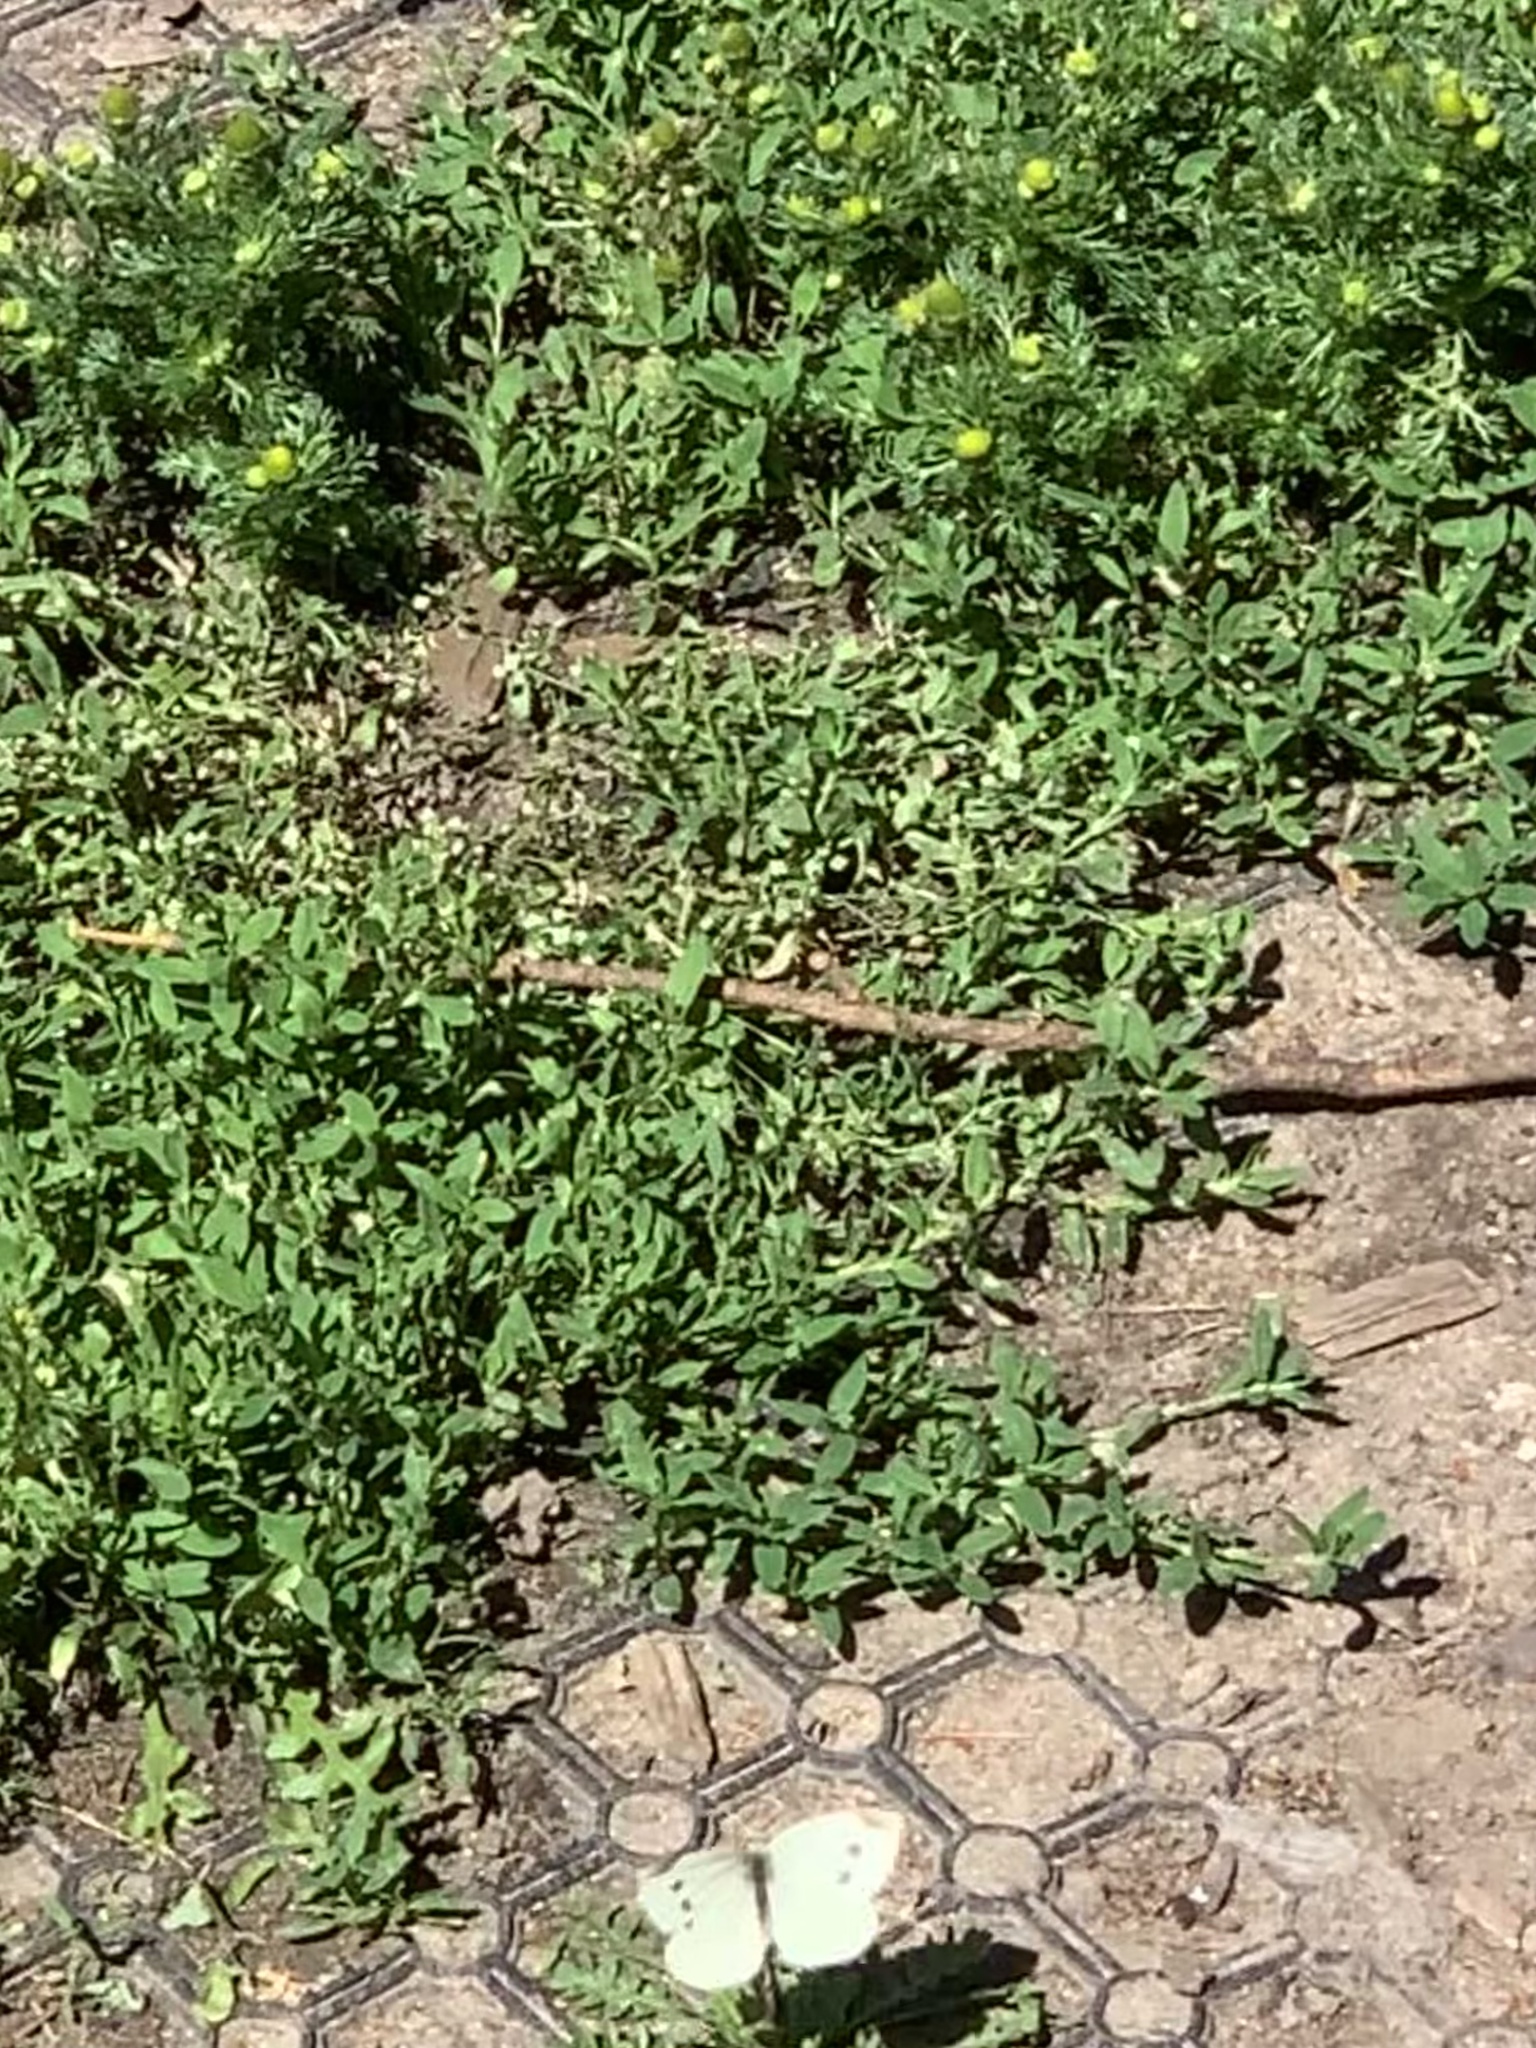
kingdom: Animalia
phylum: Arthropoda
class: Insecta
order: Lepidoptera
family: Pieridae
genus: Pieris
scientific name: Pieris rapae
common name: Small white
